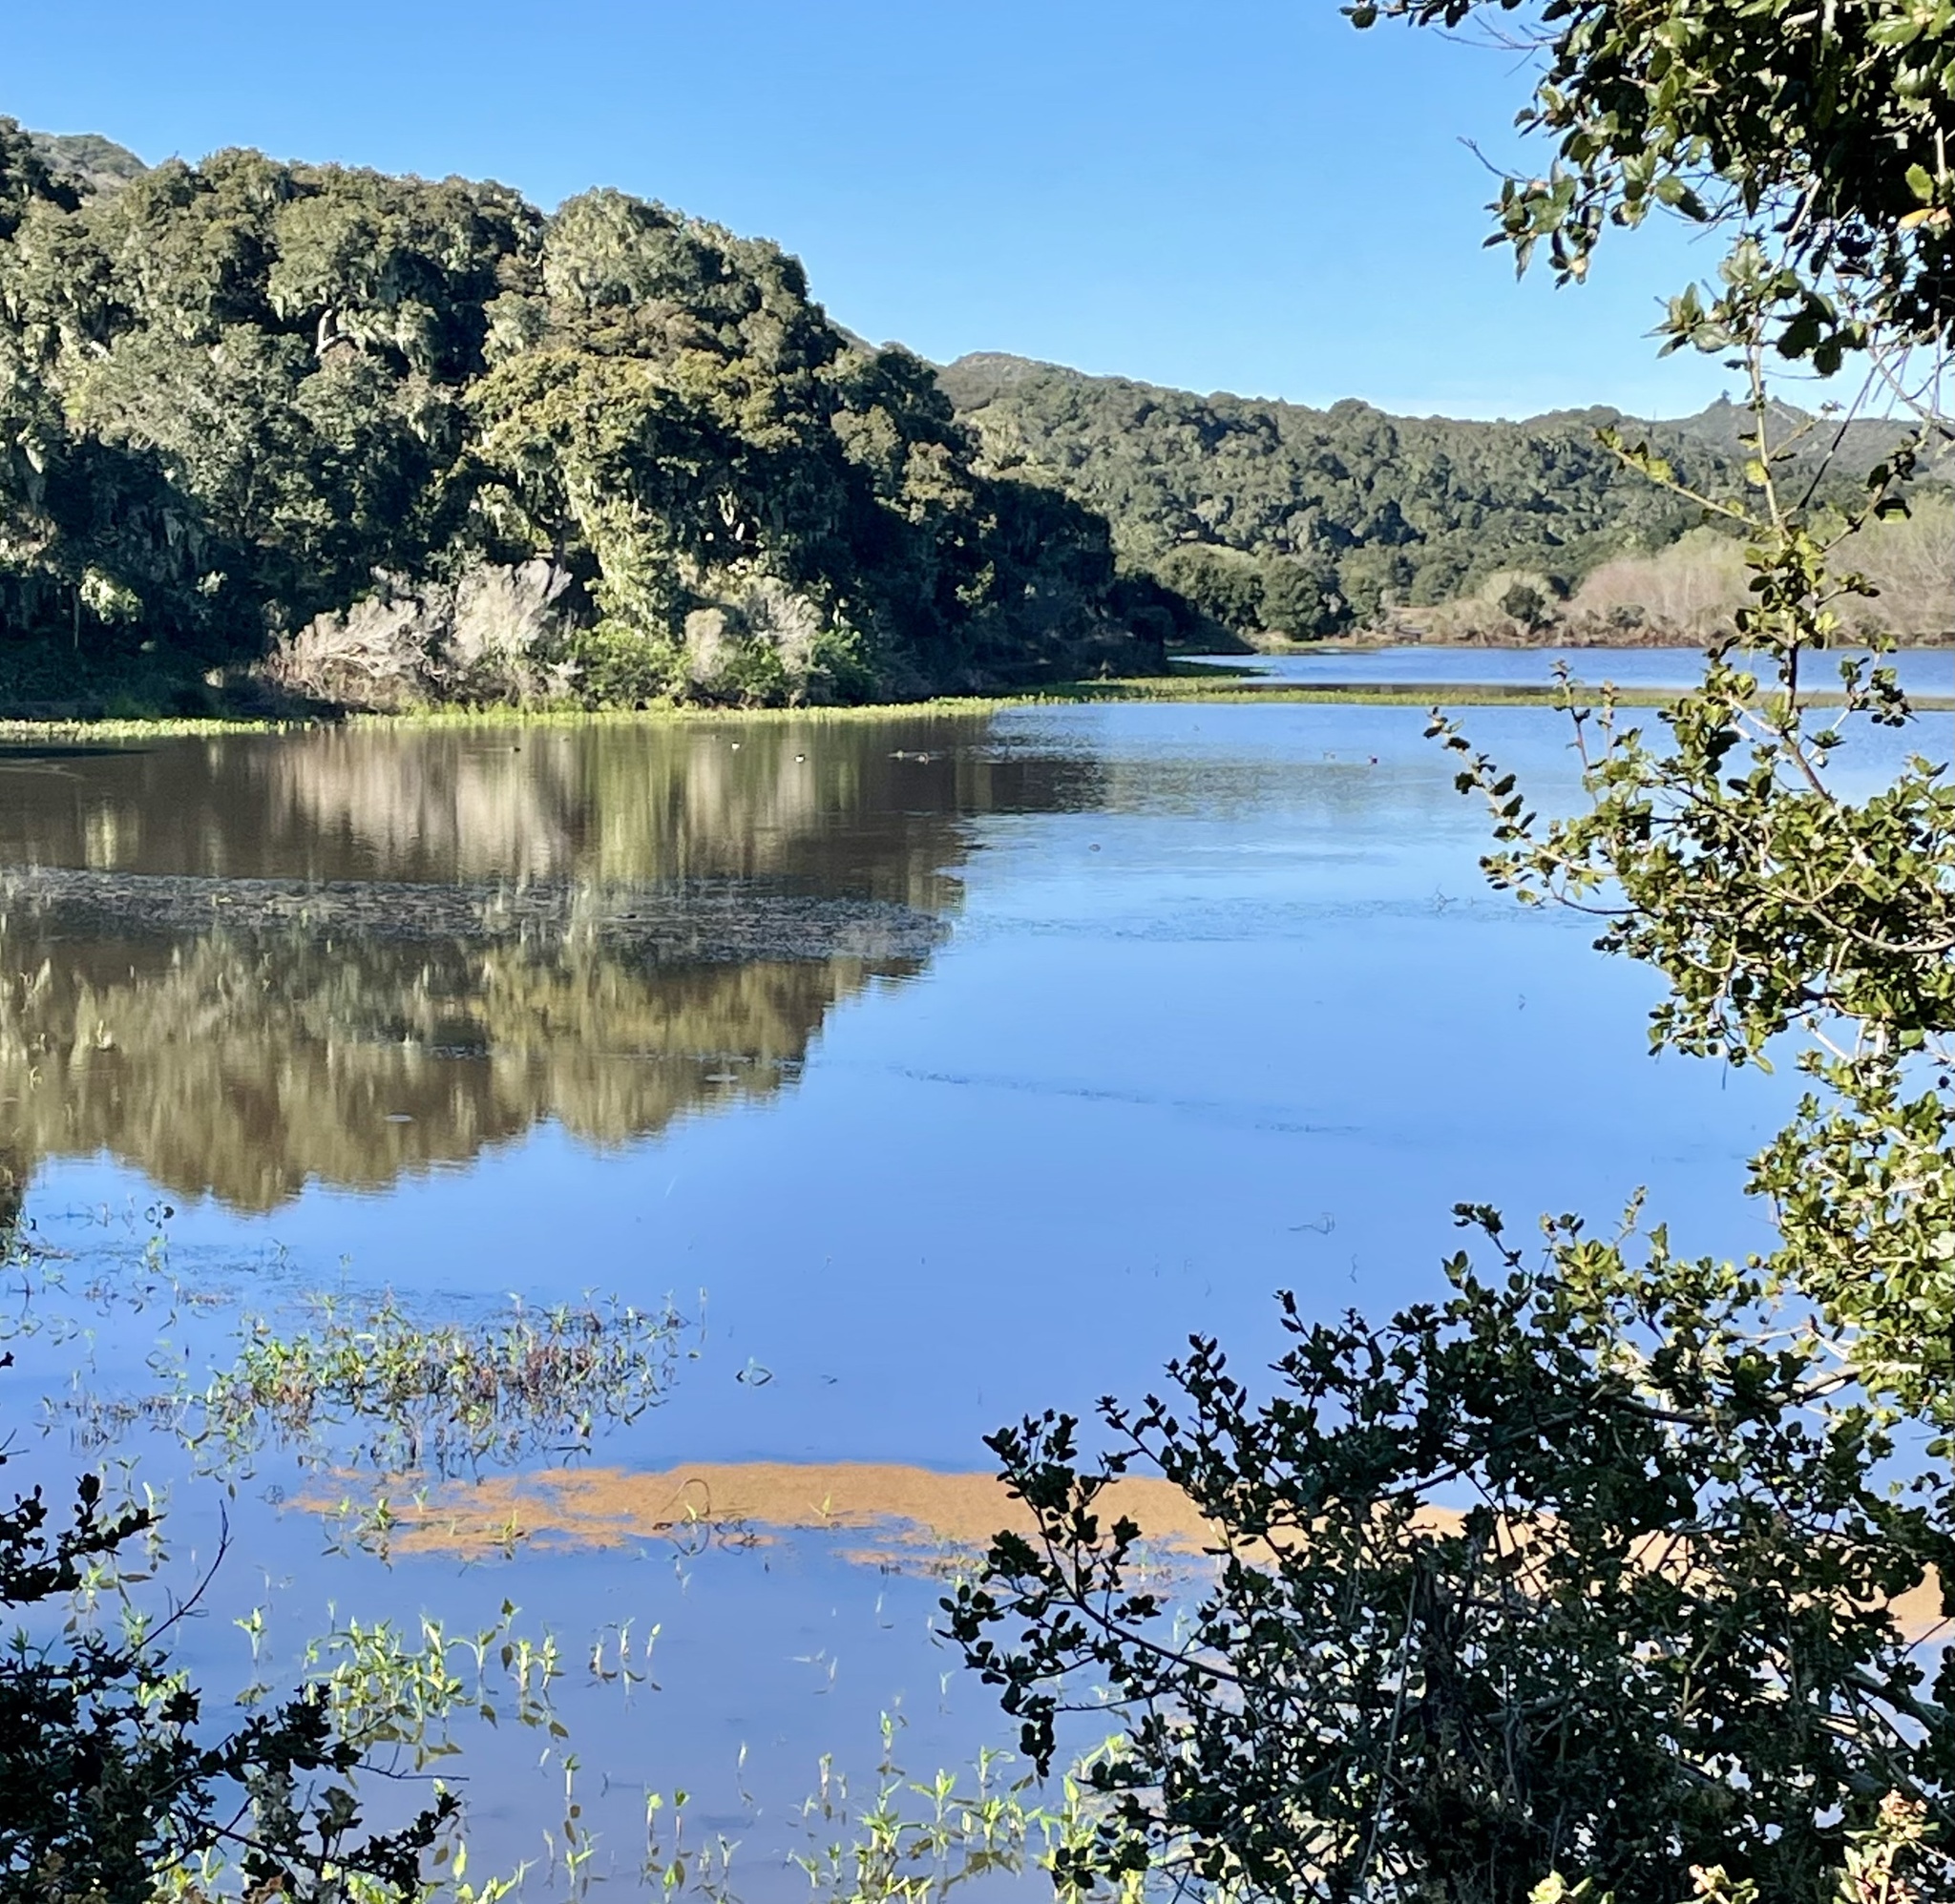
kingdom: Animalia
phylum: Chordata
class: Aves
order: Anseriformes
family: Anatidae
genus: Mareca
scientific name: Mareca strepera
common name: Gadwall
